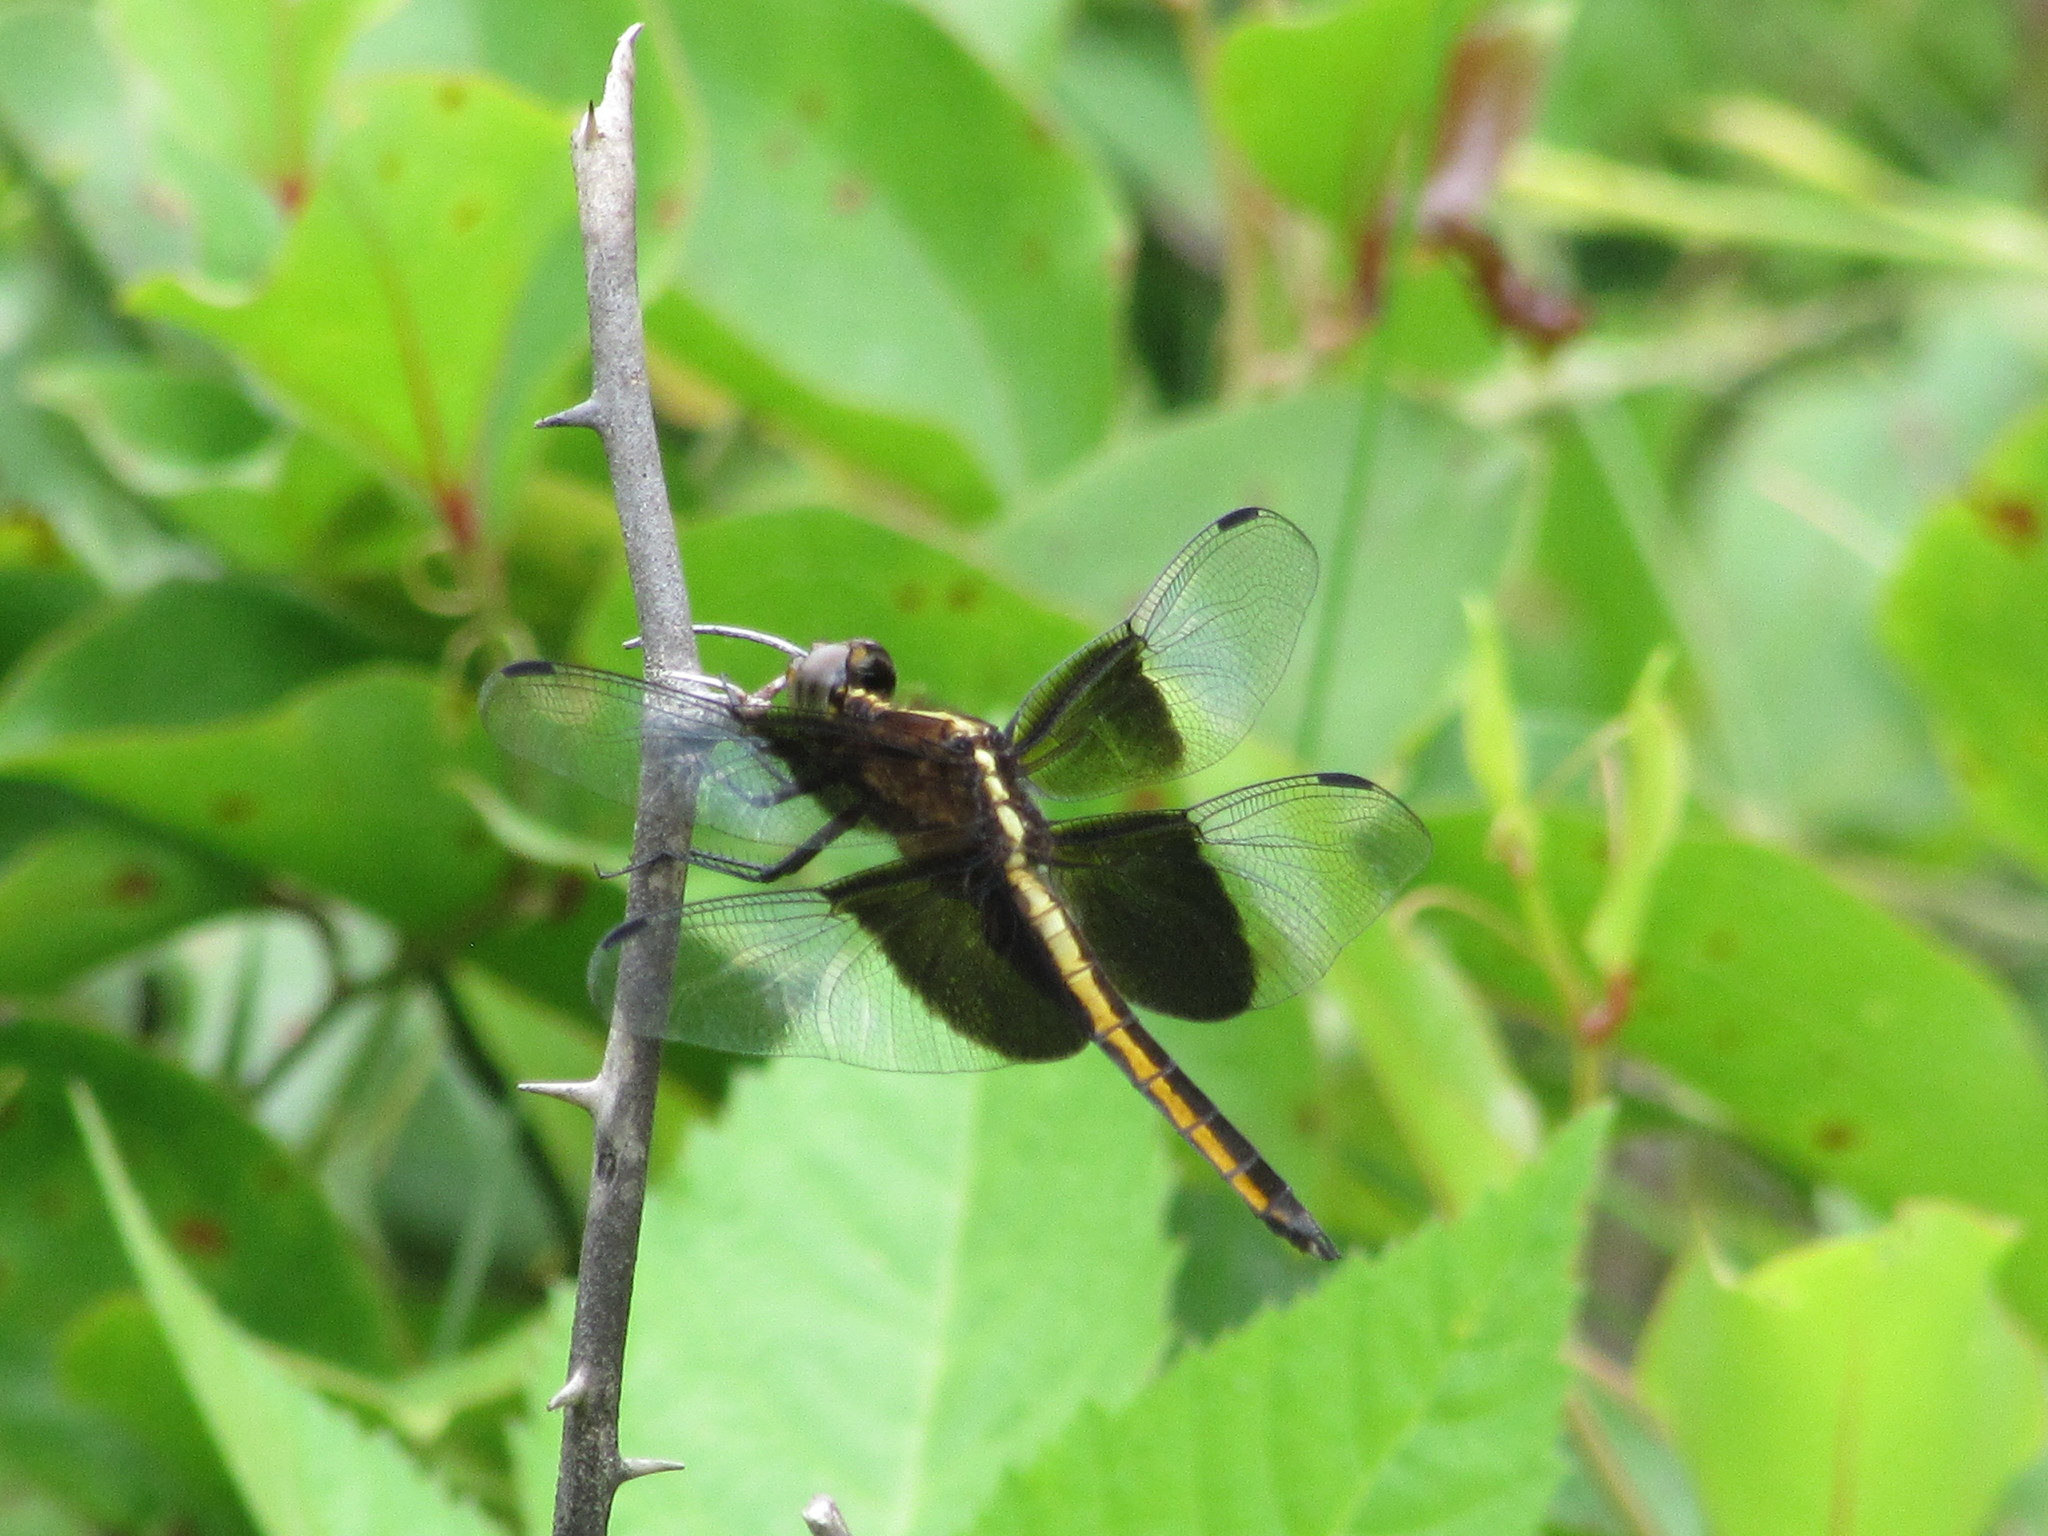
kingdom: Animalia
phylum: Arthropoda
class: Insecta
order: Odonata
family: Libellulidae
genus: Libellula
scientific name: Libellula luctuosa
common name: Widow skimmer
